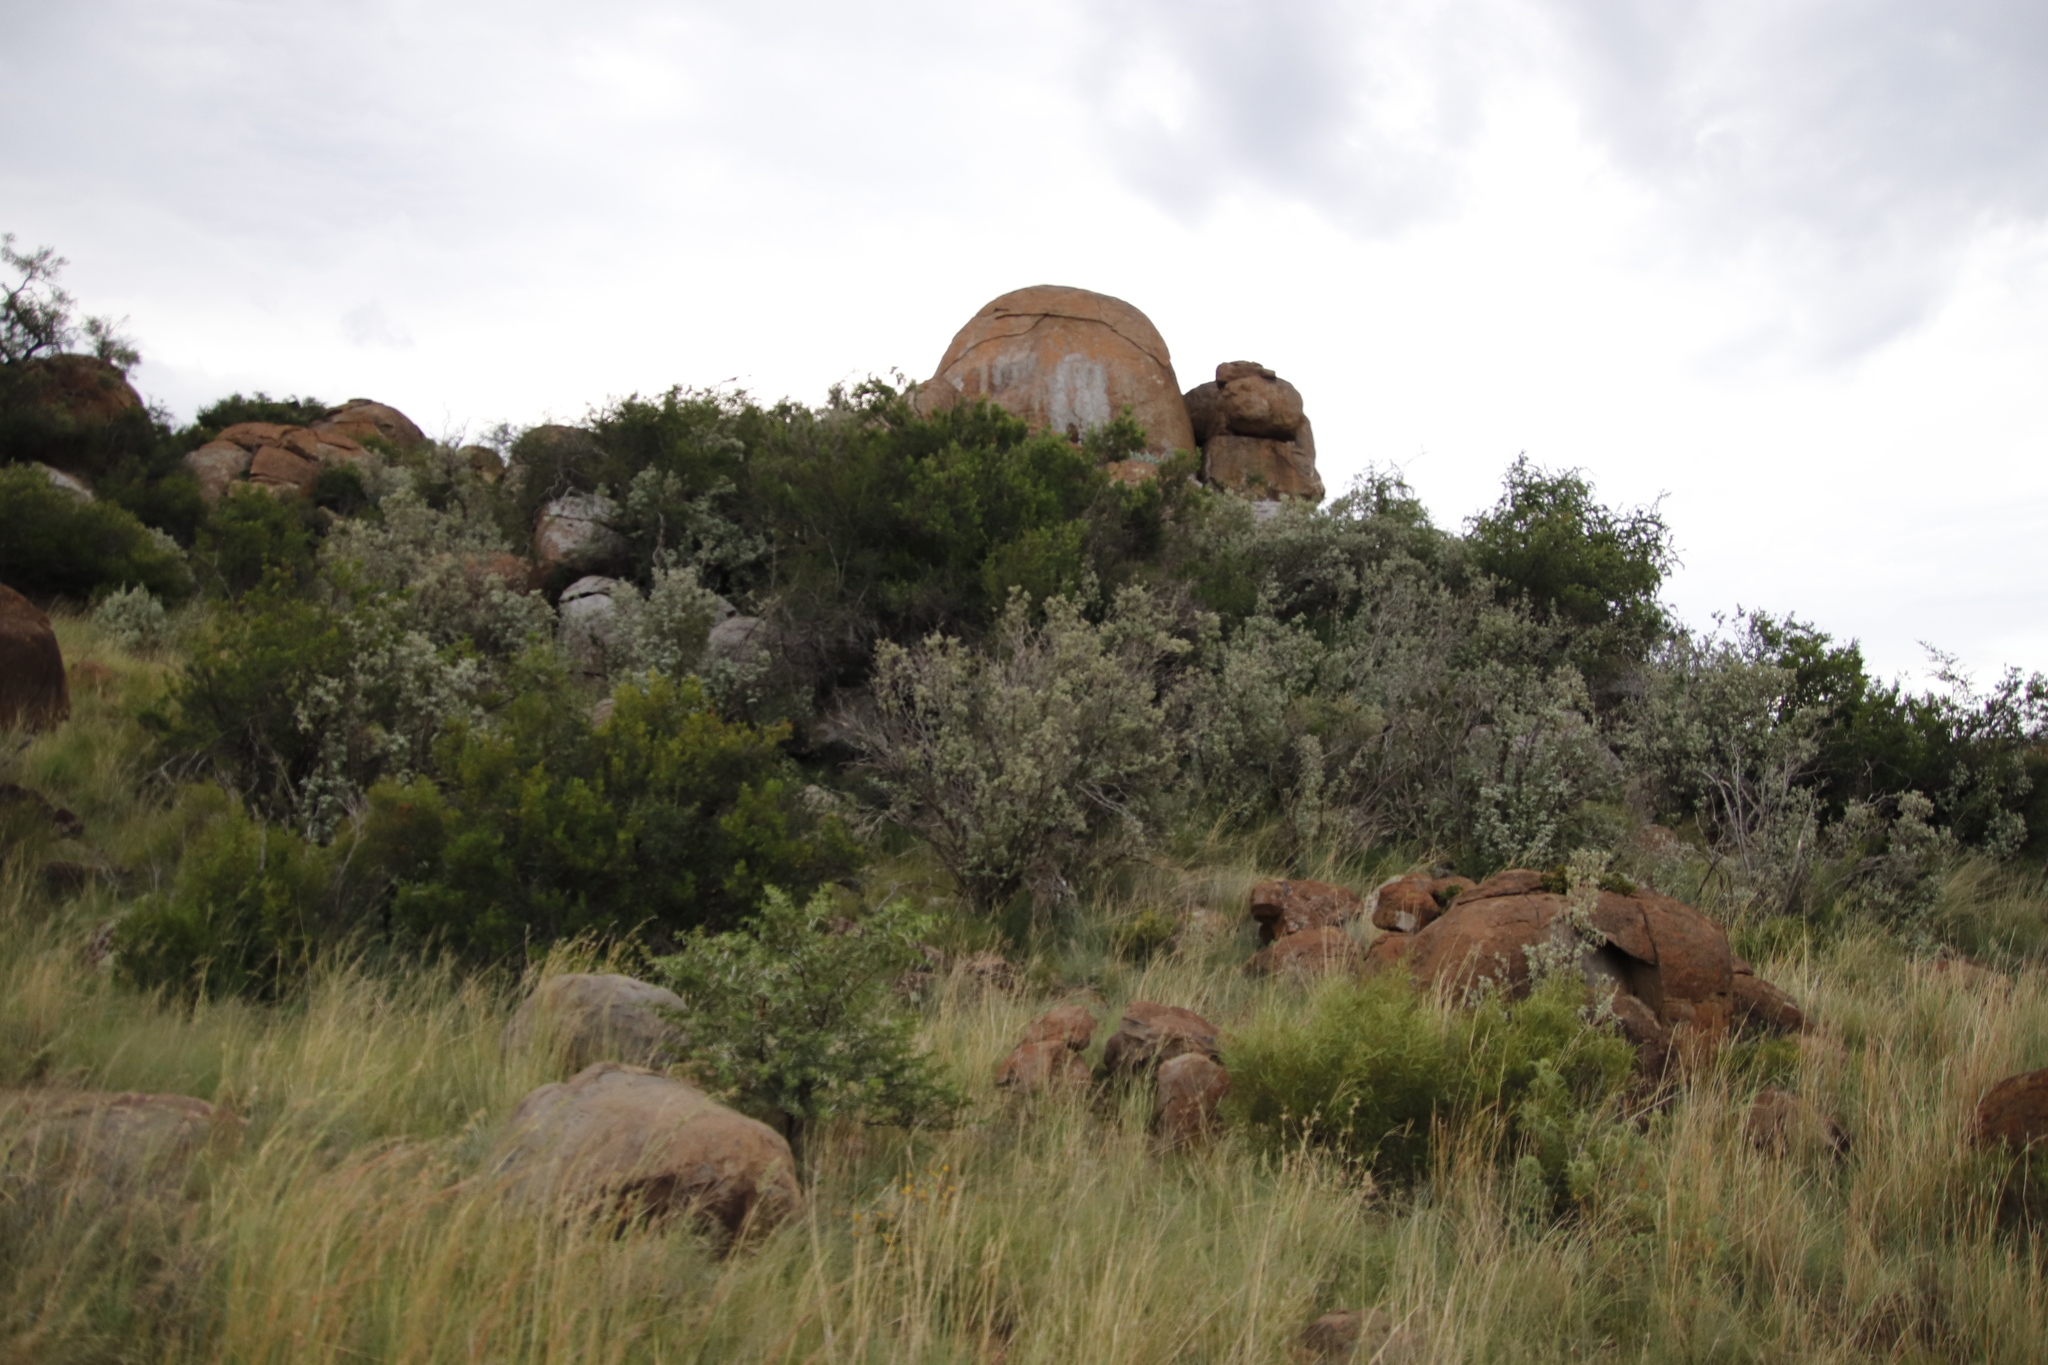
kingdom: Plantae
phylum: Tracheophyta
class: Magnoliopsida
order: Lamiales
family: Scrophulariaceae
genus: Buddleja
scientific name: Buddleja glomerata
